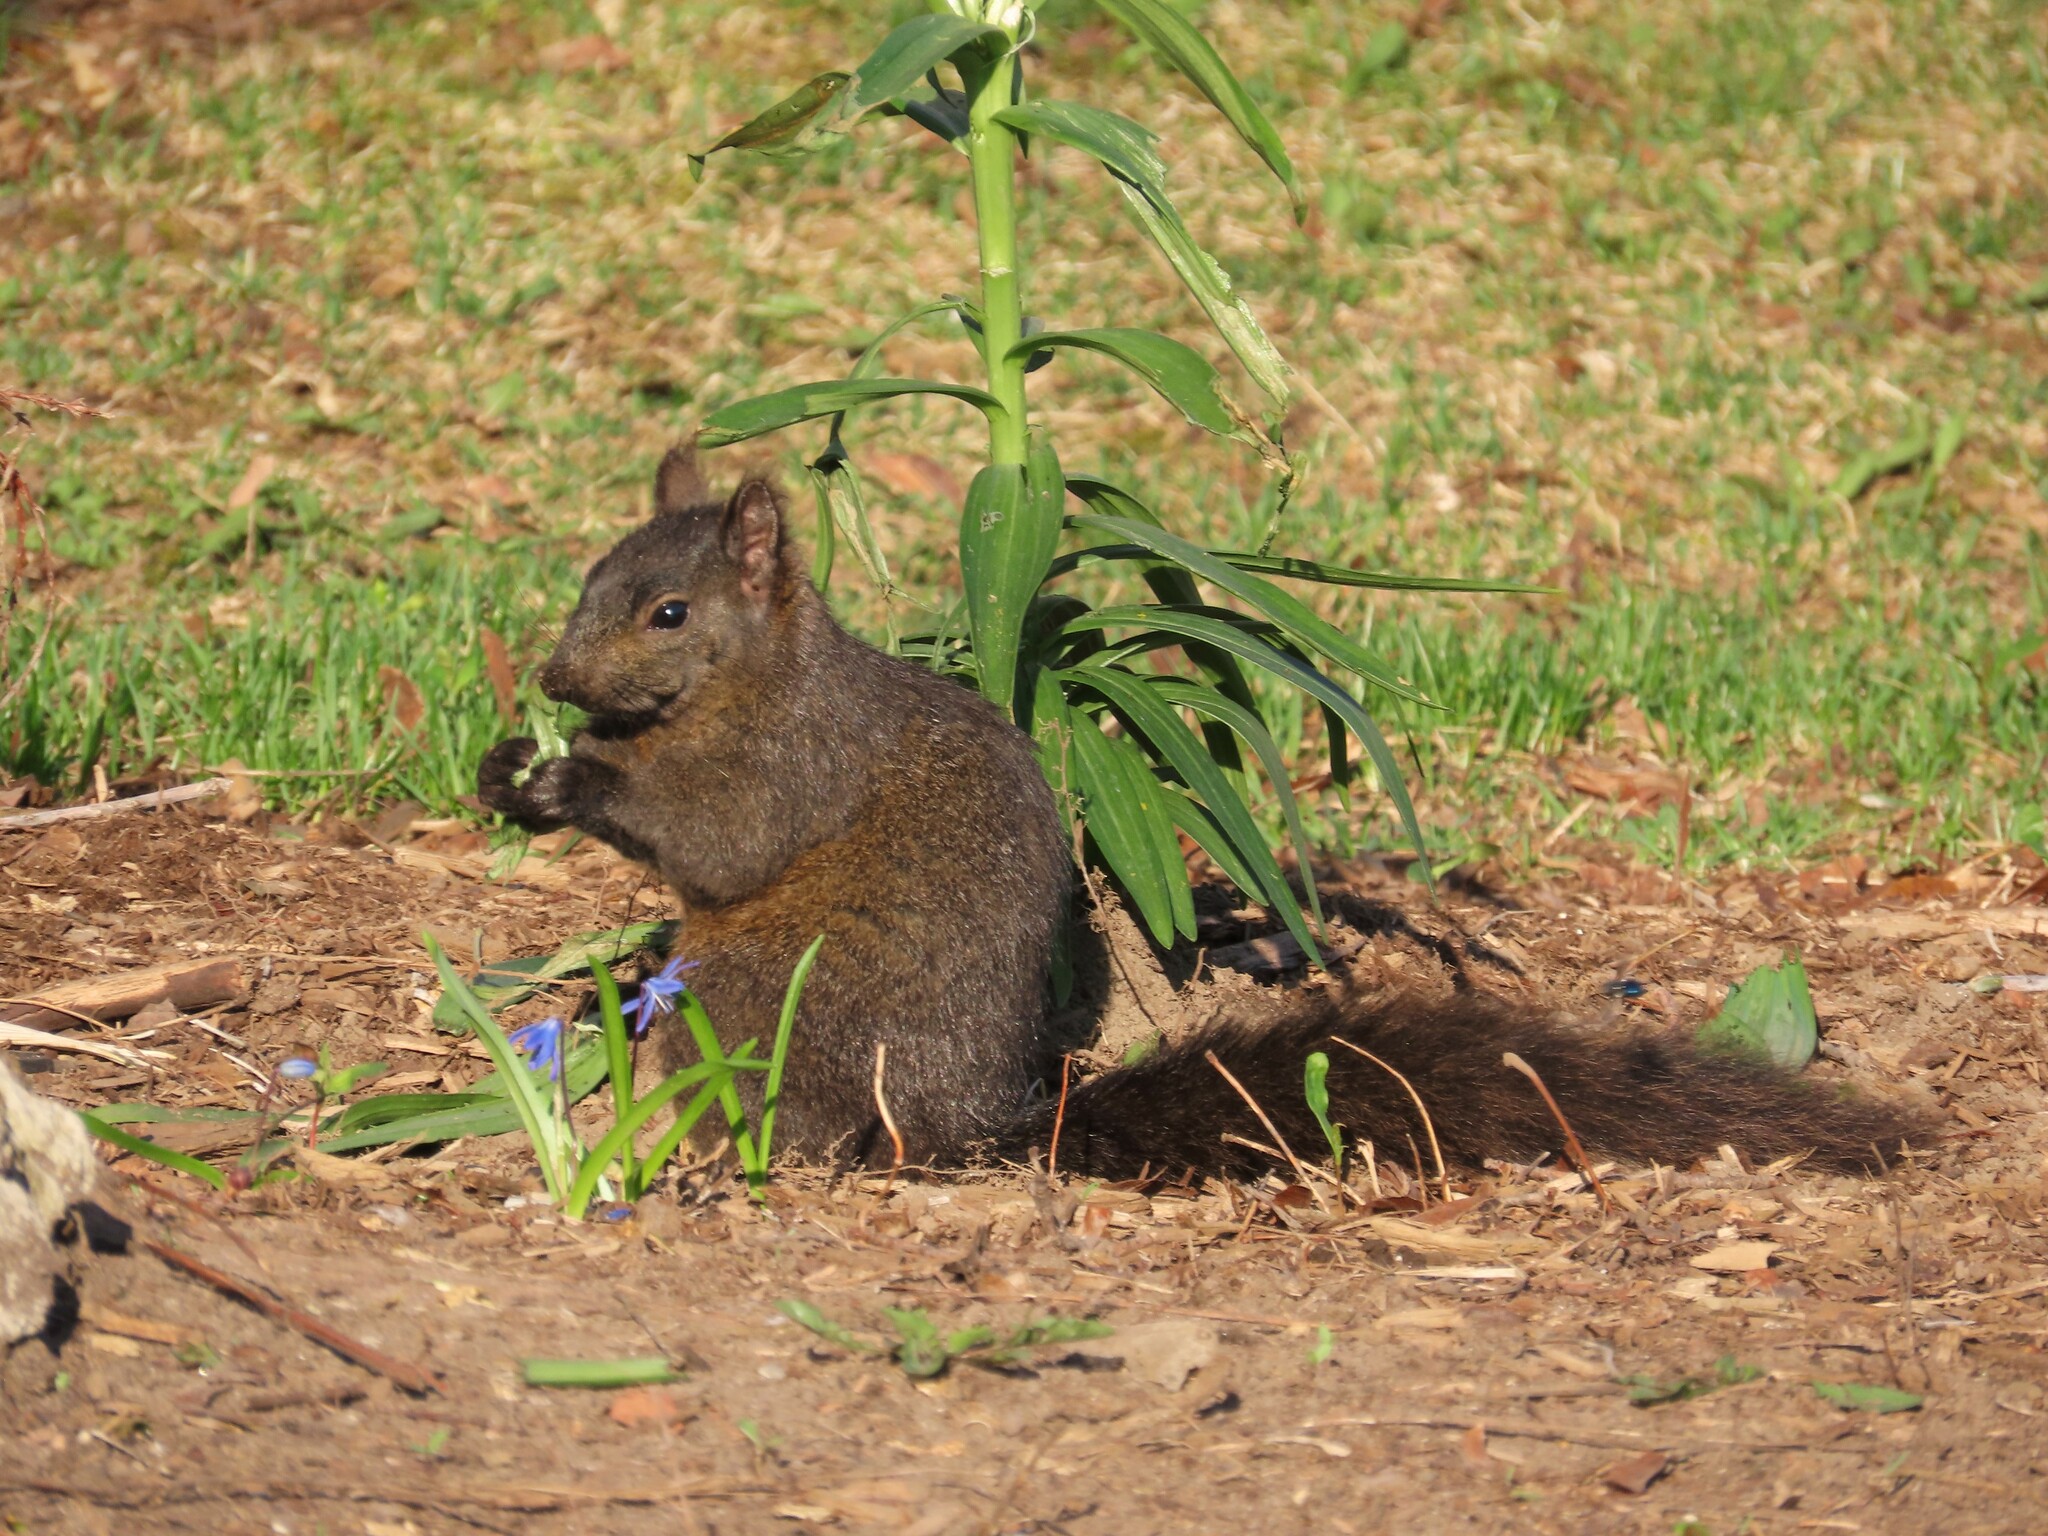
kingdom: Animalia
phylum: Chordata
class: Mammalia
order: Rodentia
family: Sciuridae
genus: Sciurus
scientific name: Sciurus carolinensis
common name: Eastern gray squirrel
